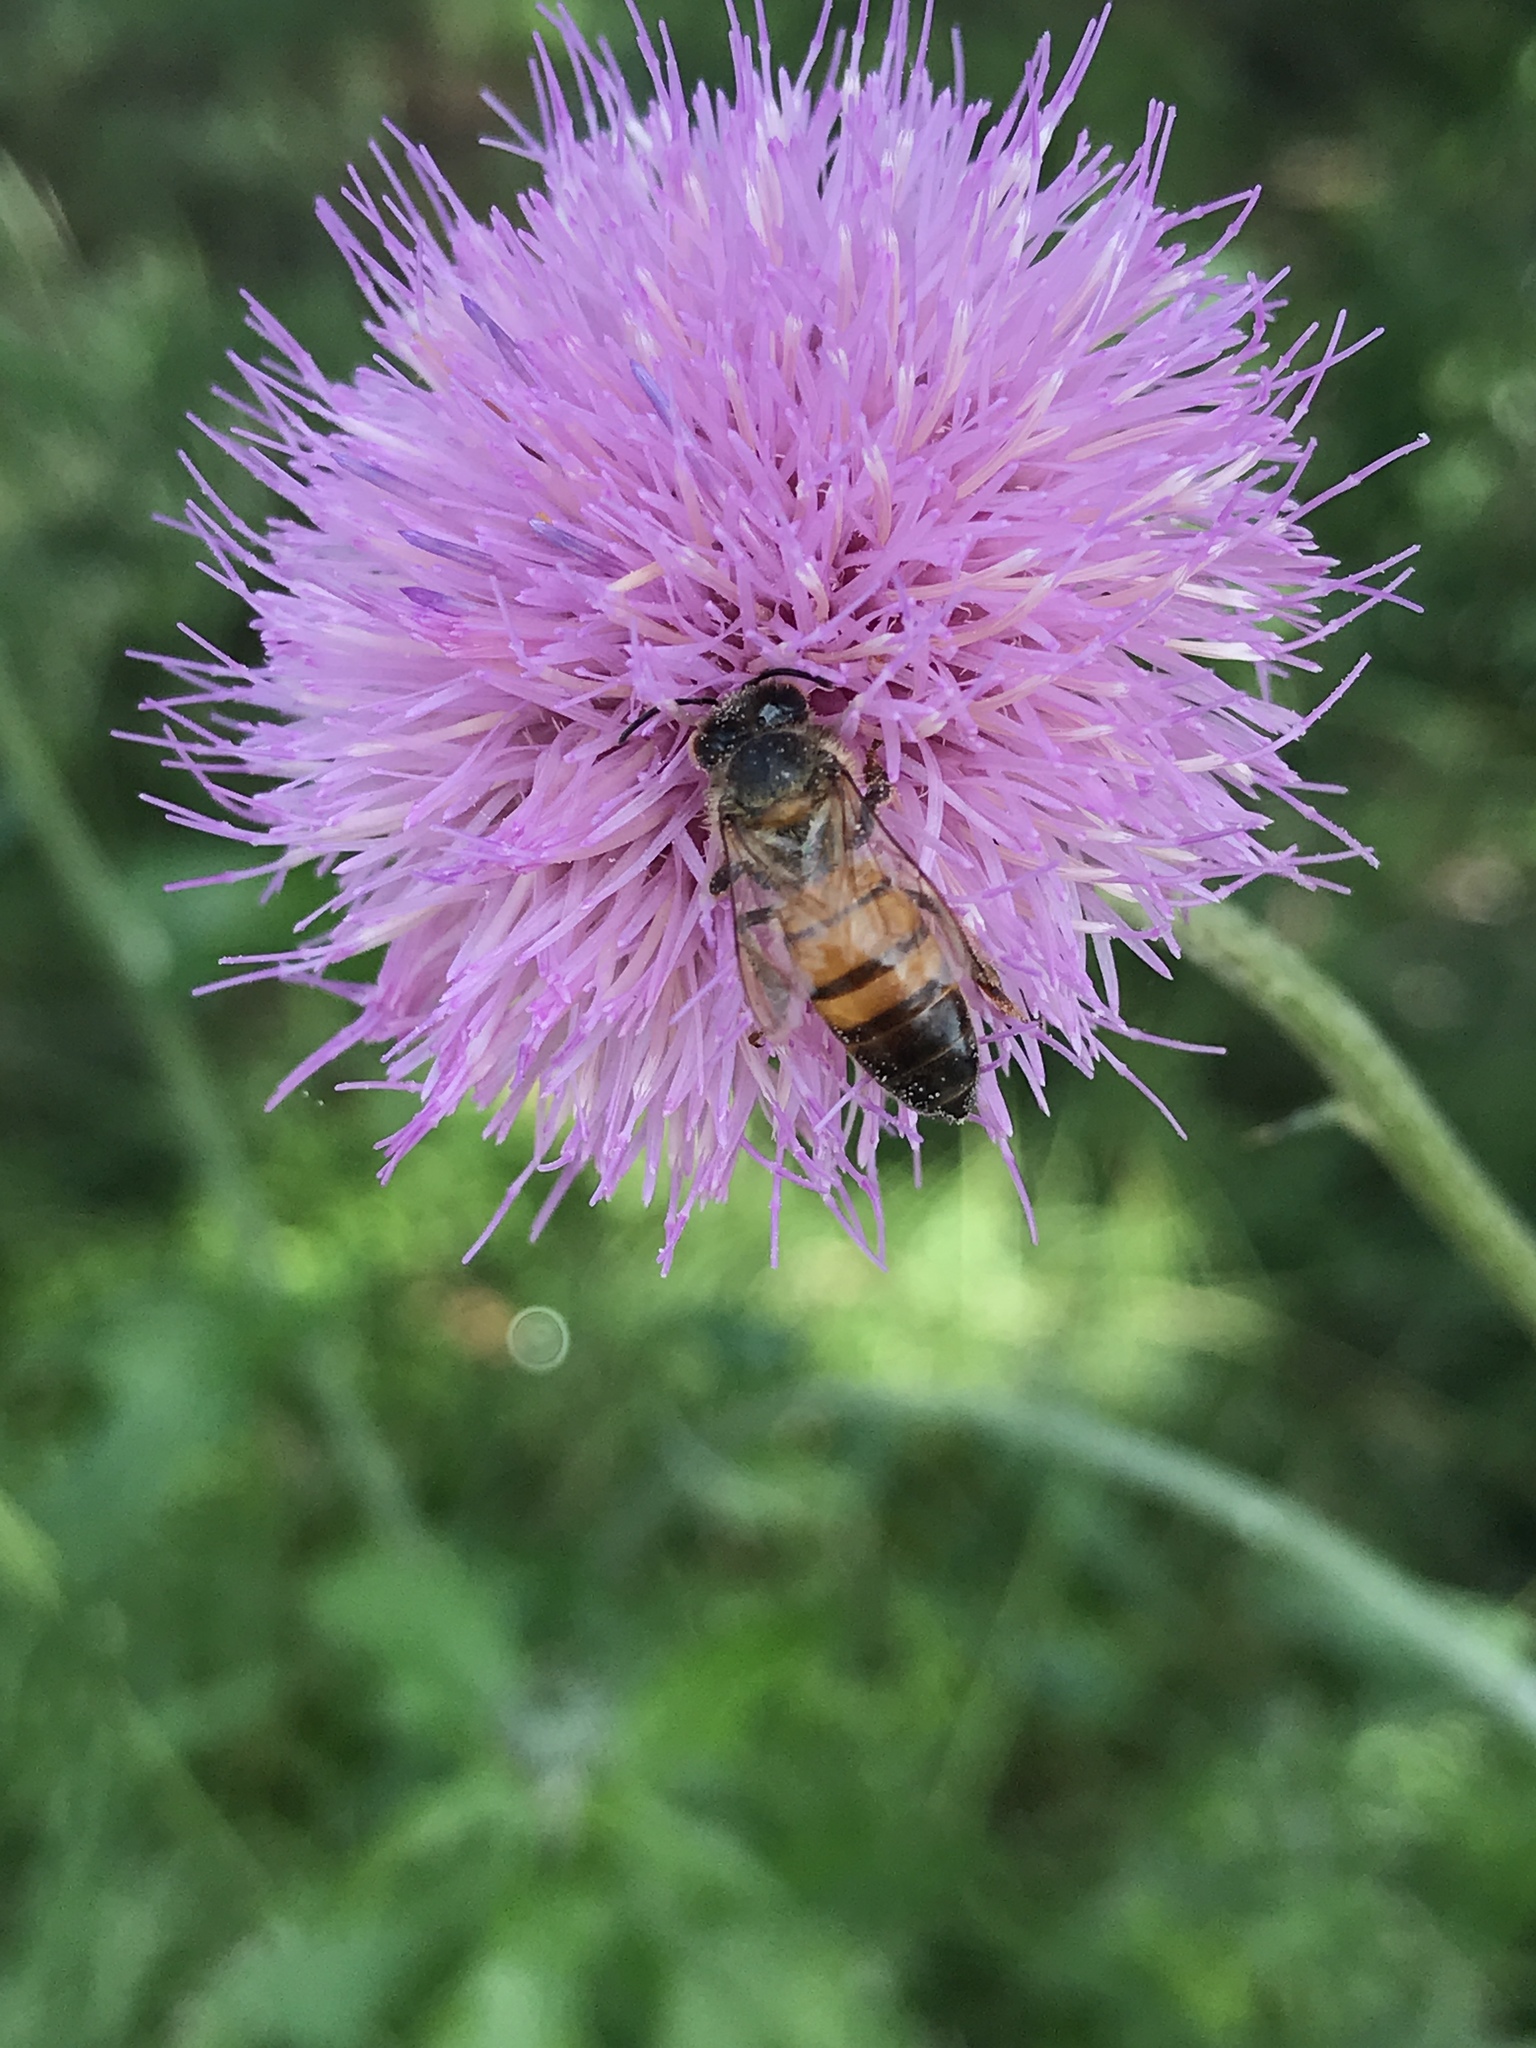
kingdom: Animalia
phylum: Arthropoda
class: Insecta
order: Hymenoptera
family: Apidae
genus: Apis
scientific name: Apis mellifera
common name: Honey bee
